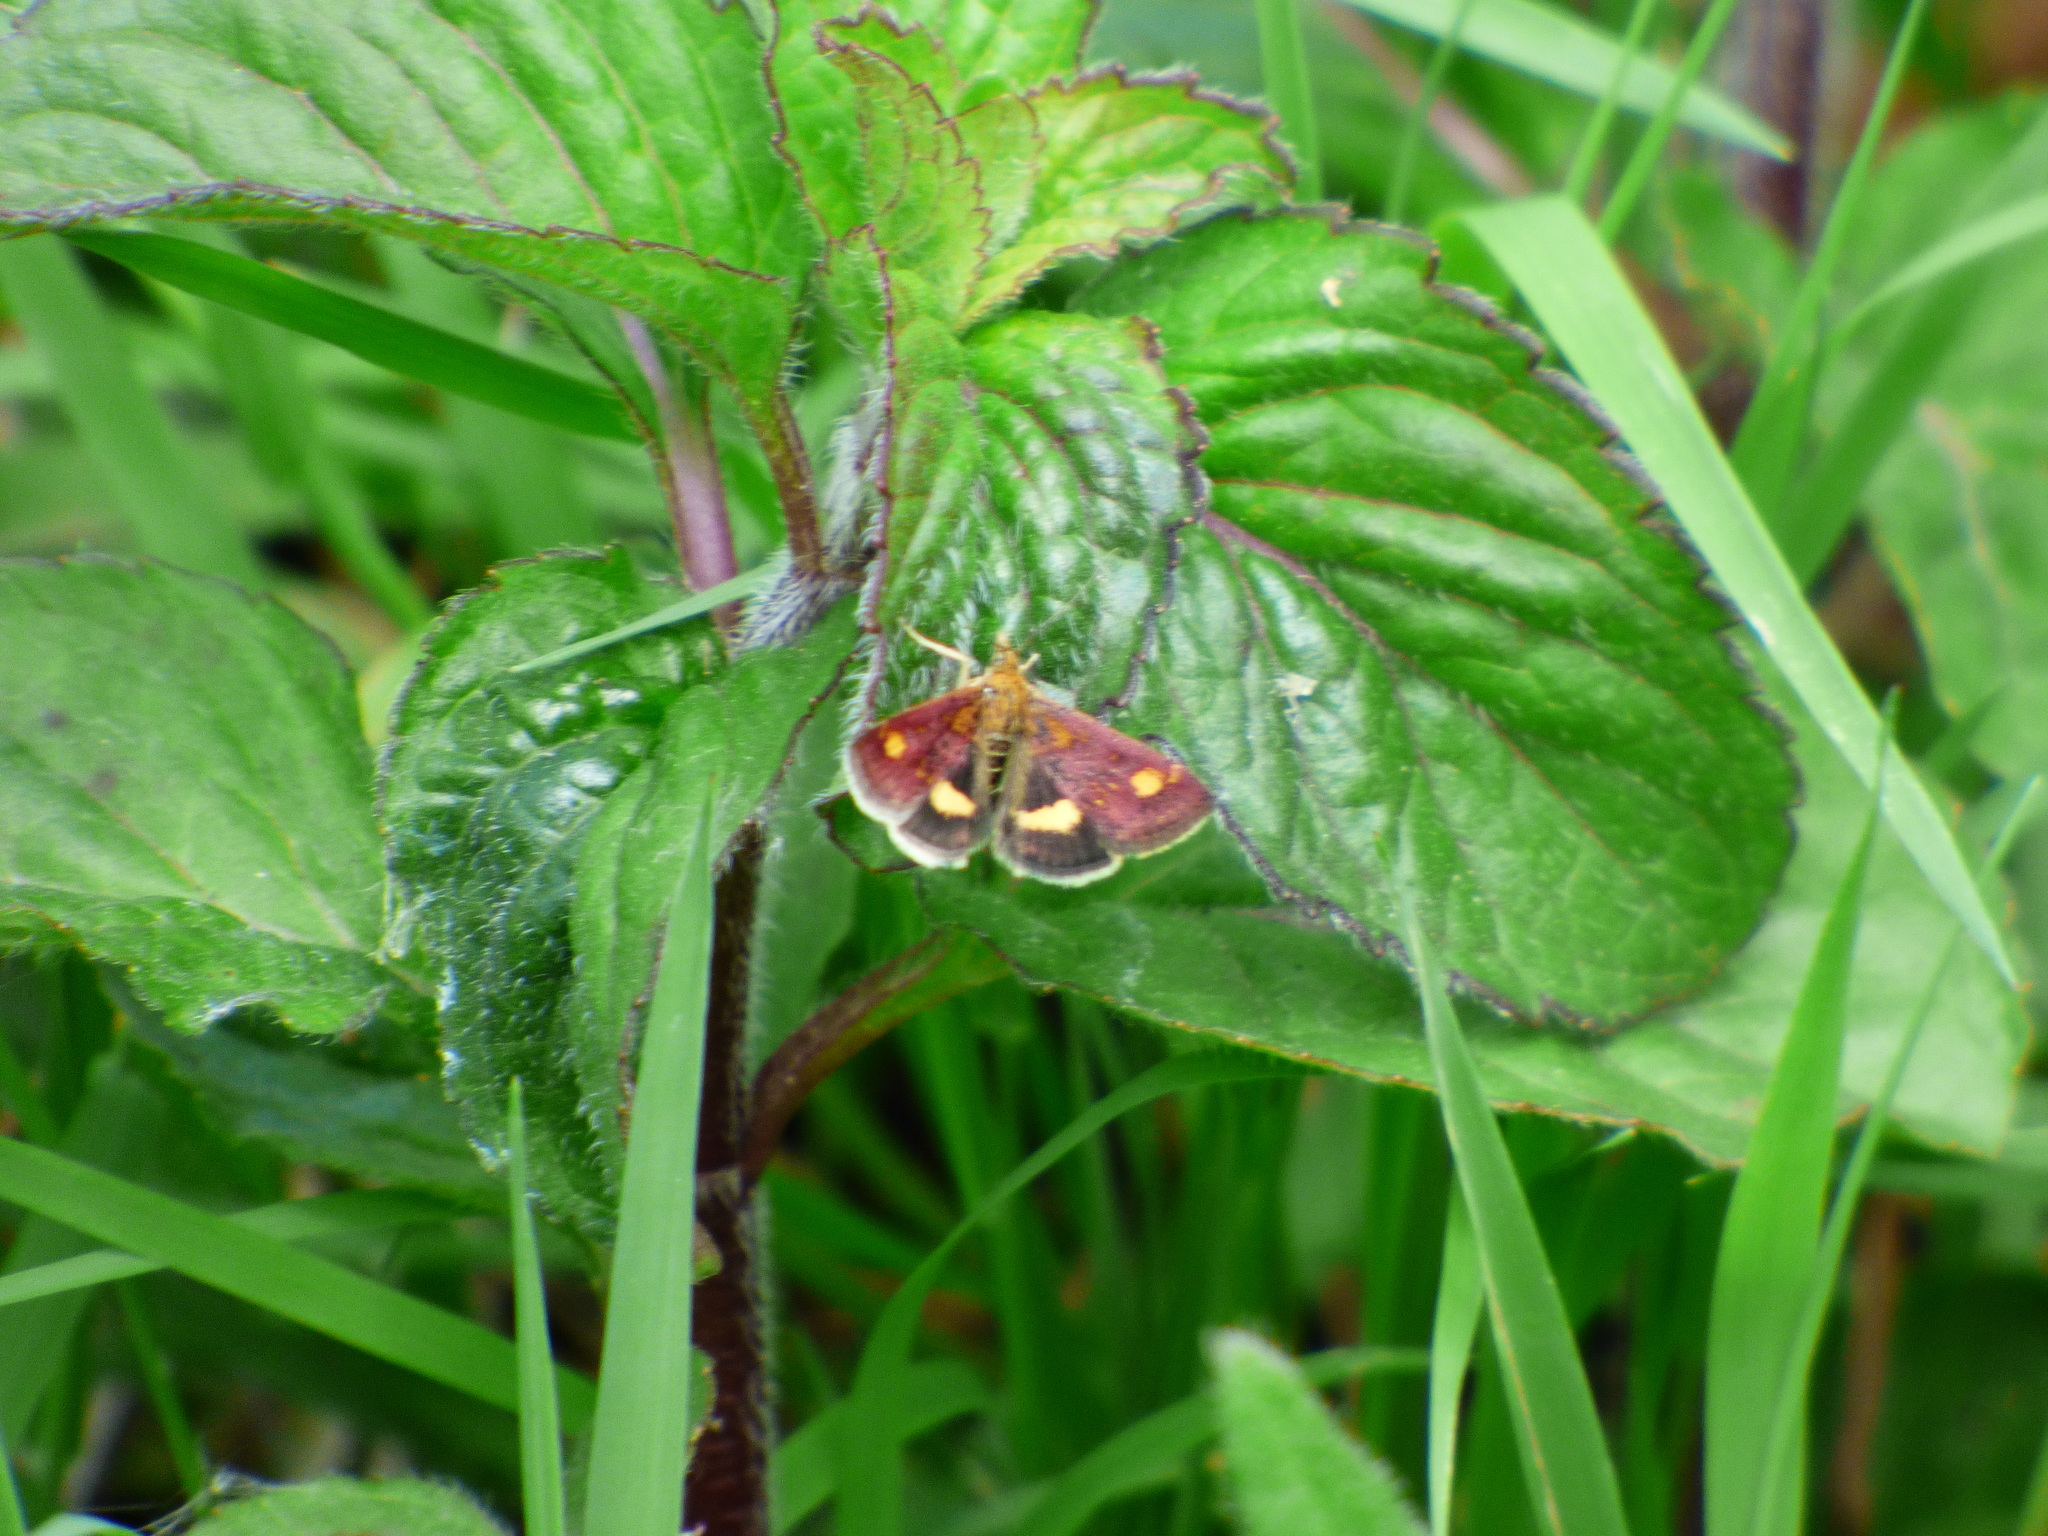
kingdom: Animalia
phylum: Arthropoda
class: Insecta
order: Lepidoptera
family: Crambidae
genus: Pyrausta
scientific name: Pyrausta aurata
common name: Small purple & gold
